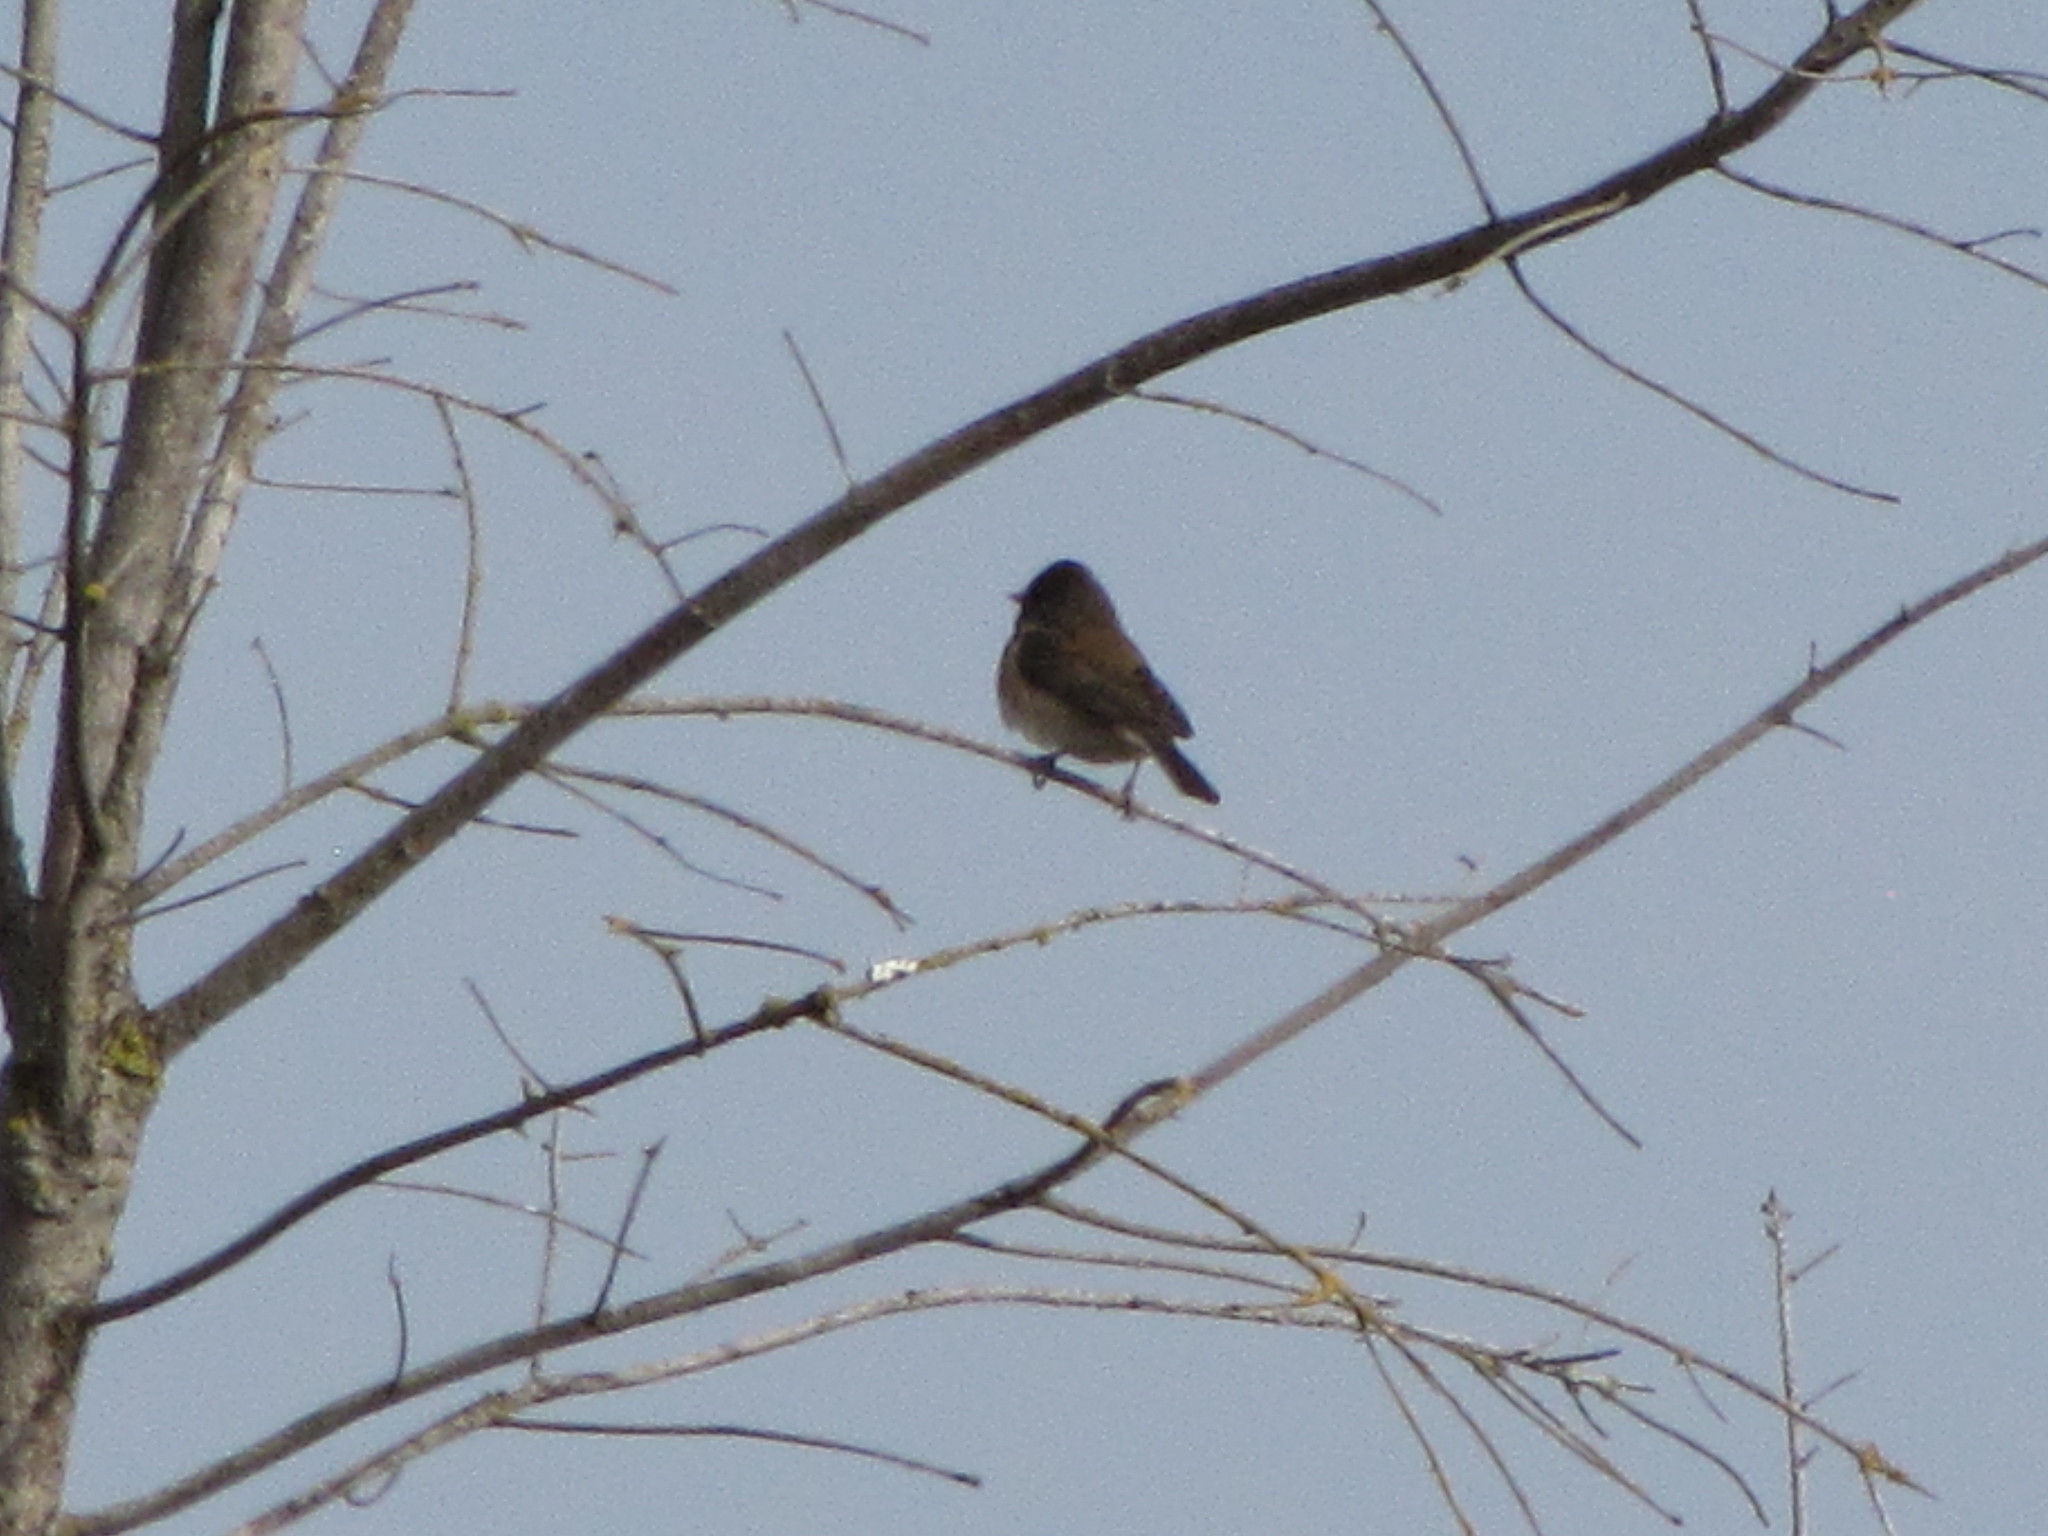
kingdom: Animalia
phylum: Chordata
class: Aves
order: Passeriformes
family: Passerellidae
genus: Junco
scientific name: Junco hyemalis
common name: Dark-eyed junco
